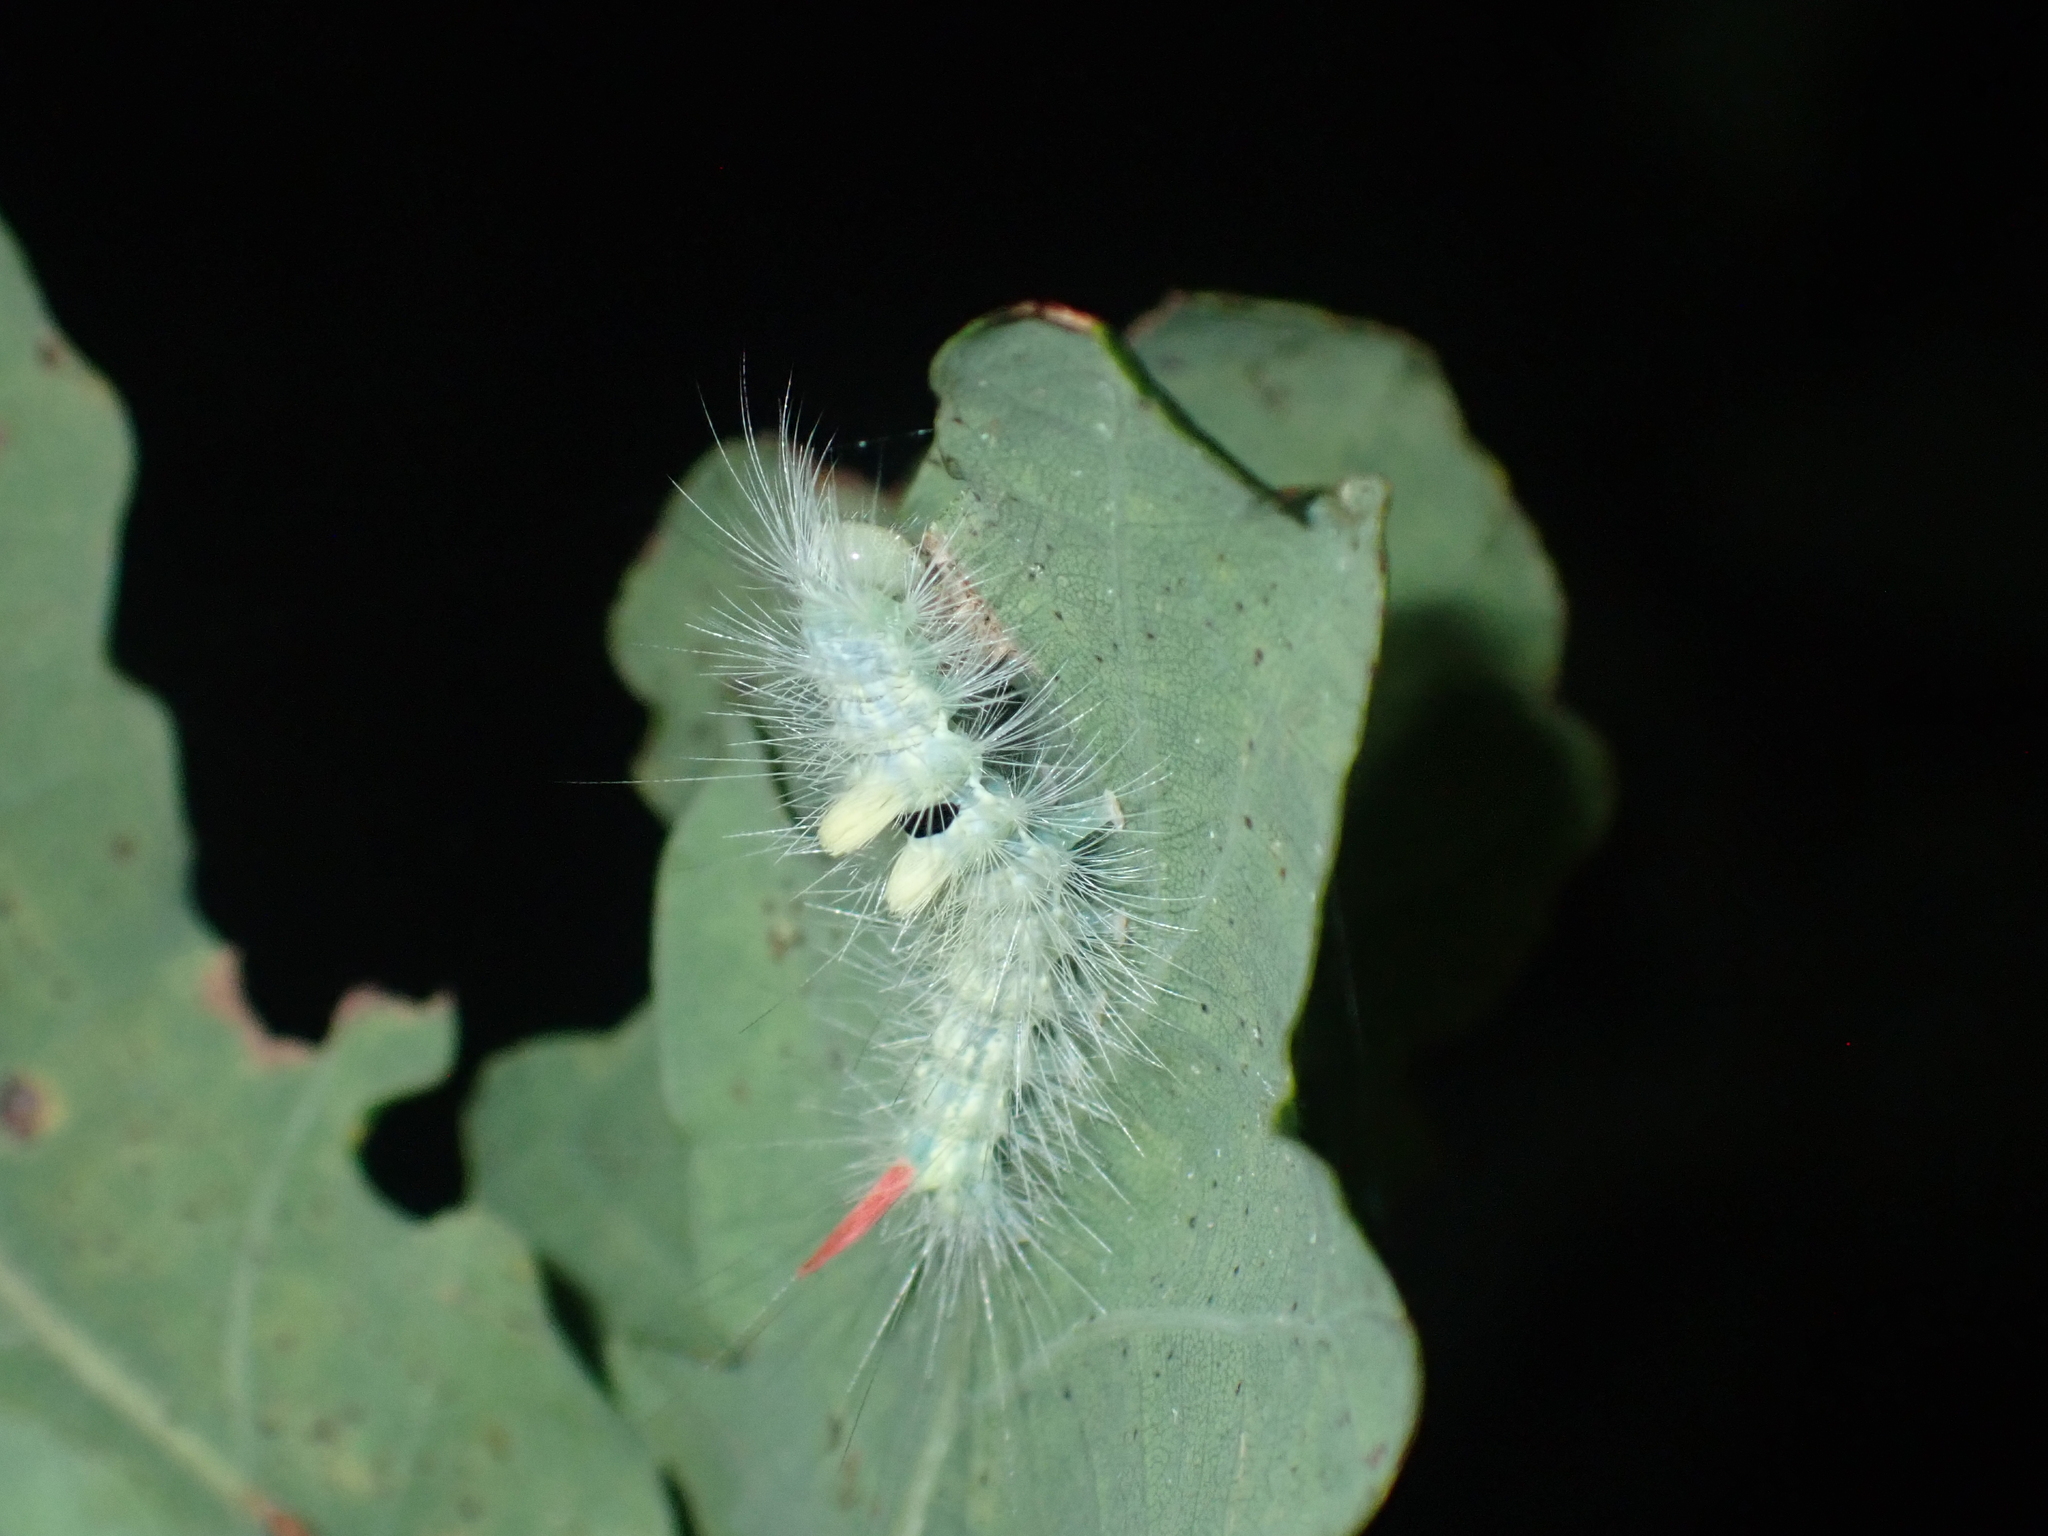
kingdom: Animalia
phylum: Arthropoda
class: Insecta
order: Lepidoptera
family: Erebidae
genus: Calliteara
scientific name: Calliteara pudibunda
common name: Pale tussock
